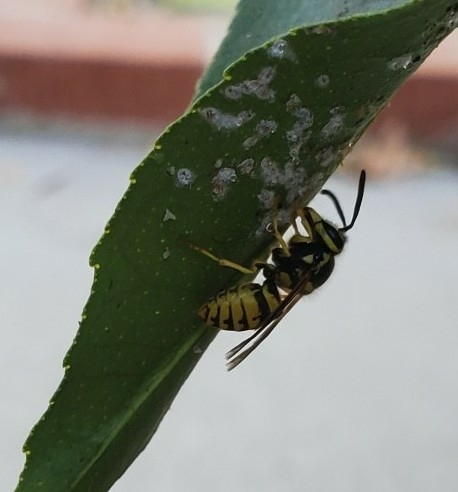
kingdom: Animalia
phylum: Arthropoda
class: Insecta
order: Hymenoptera
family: Vespidae
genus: Vespula
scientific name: Vespula pensylvanica
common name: Western yellowjacket
